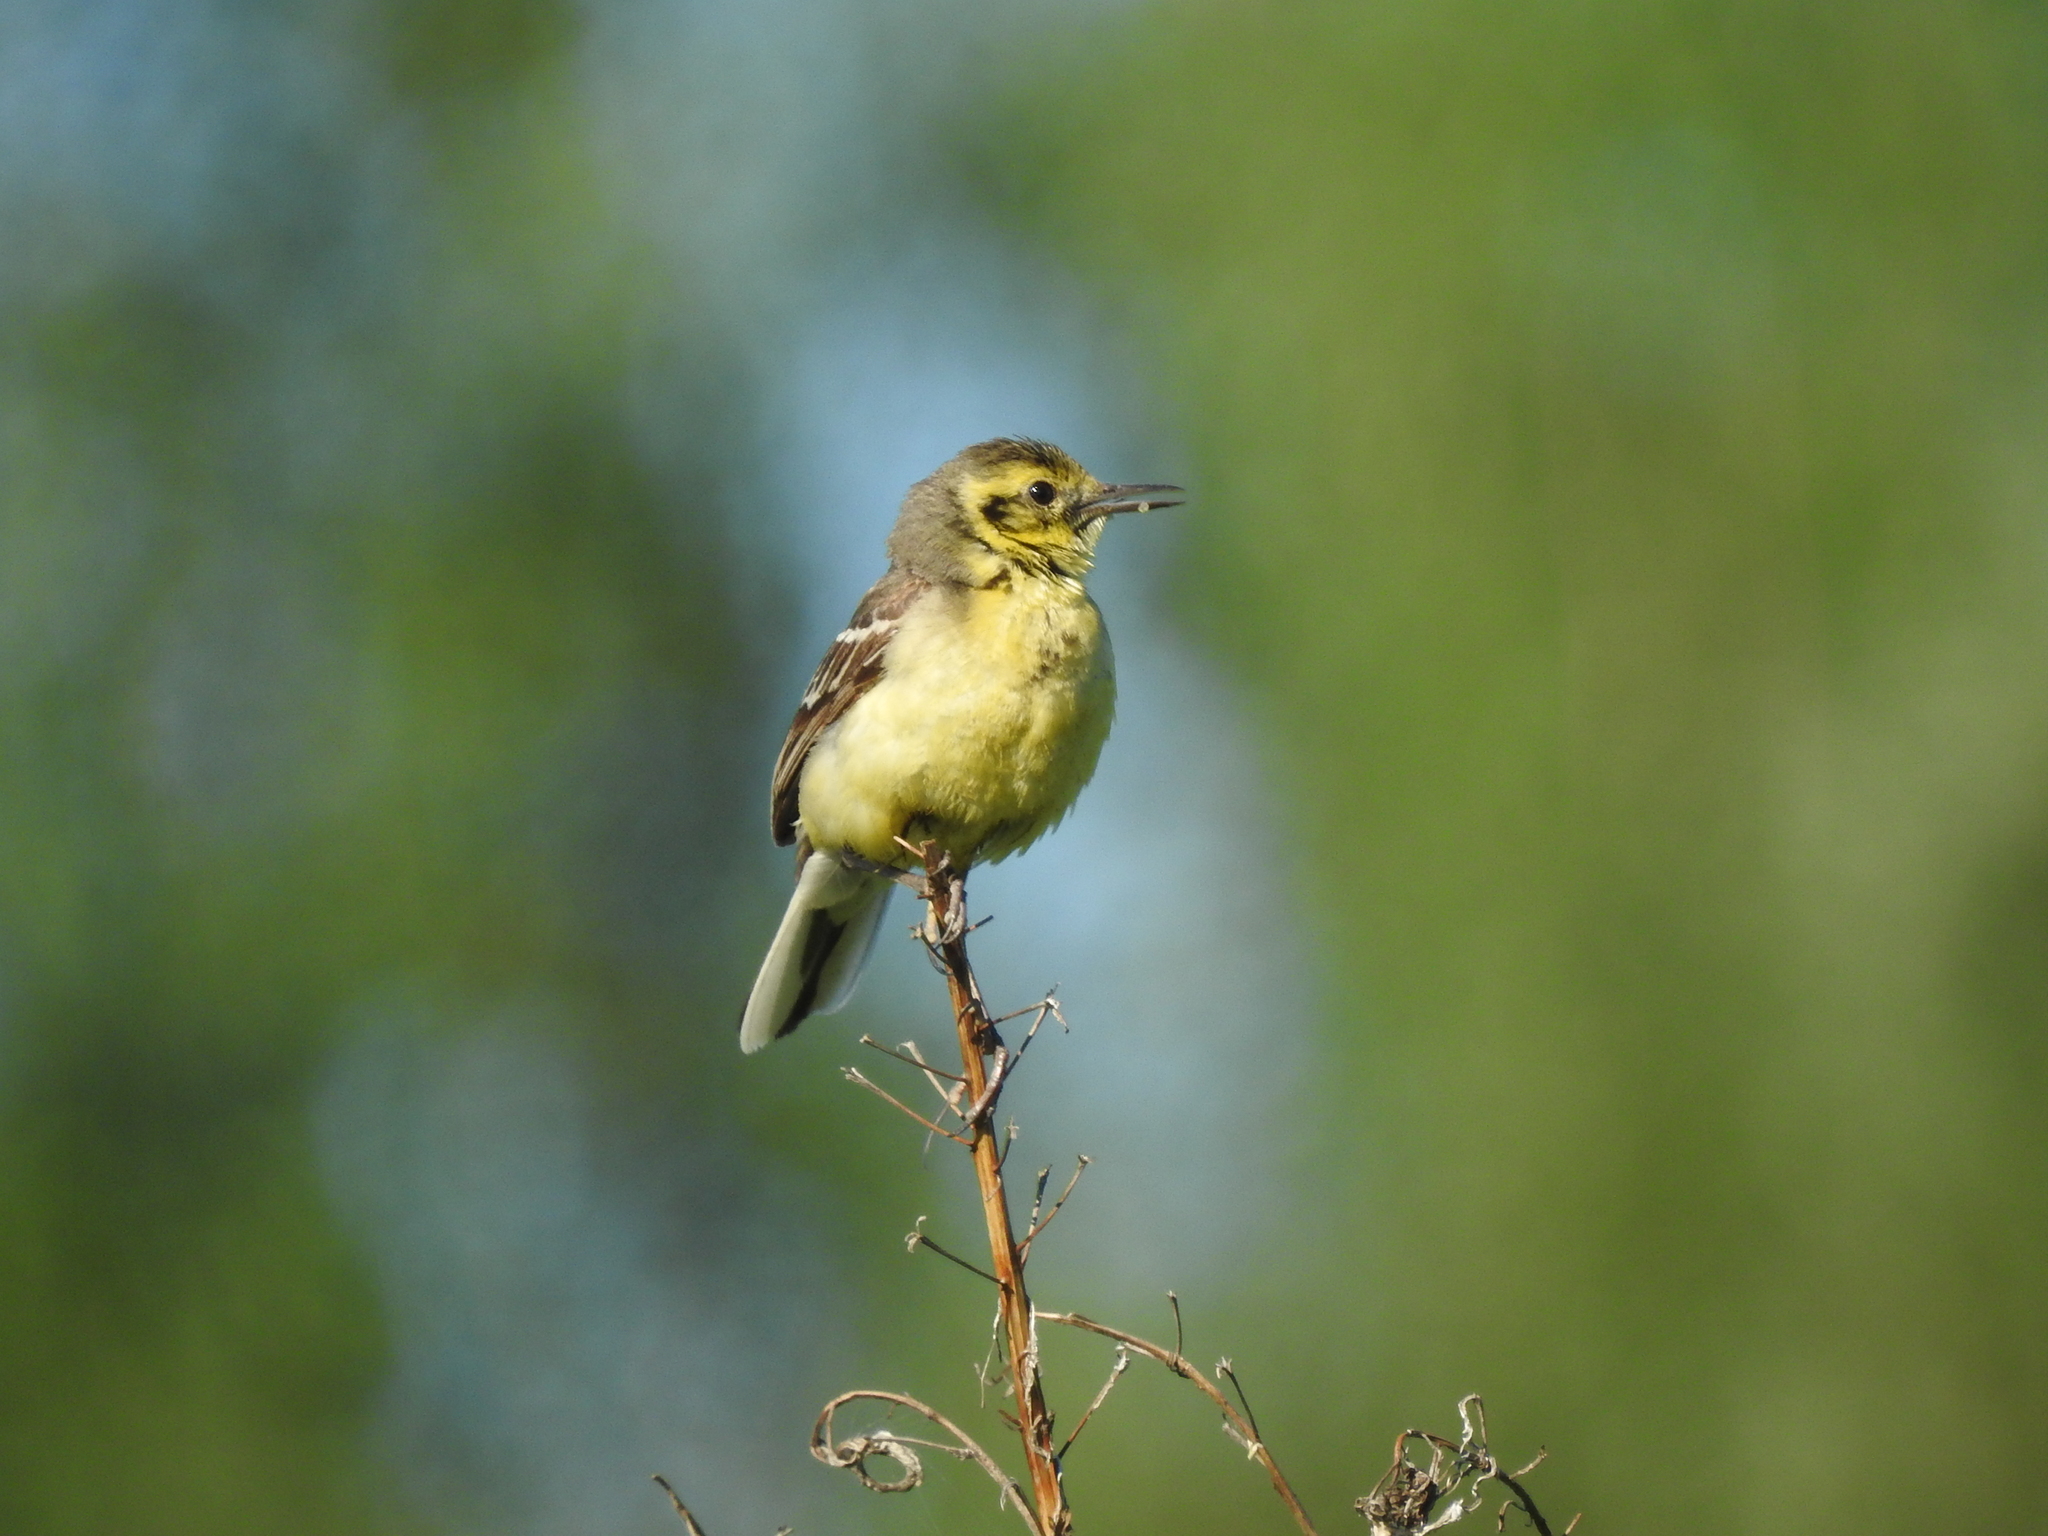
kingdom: Animalia
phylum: Chordata
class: Aves
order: Passeriformes
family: Motacillidae
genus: Motacilla
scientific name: Motacilla citreola
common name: Citrine wagtail
